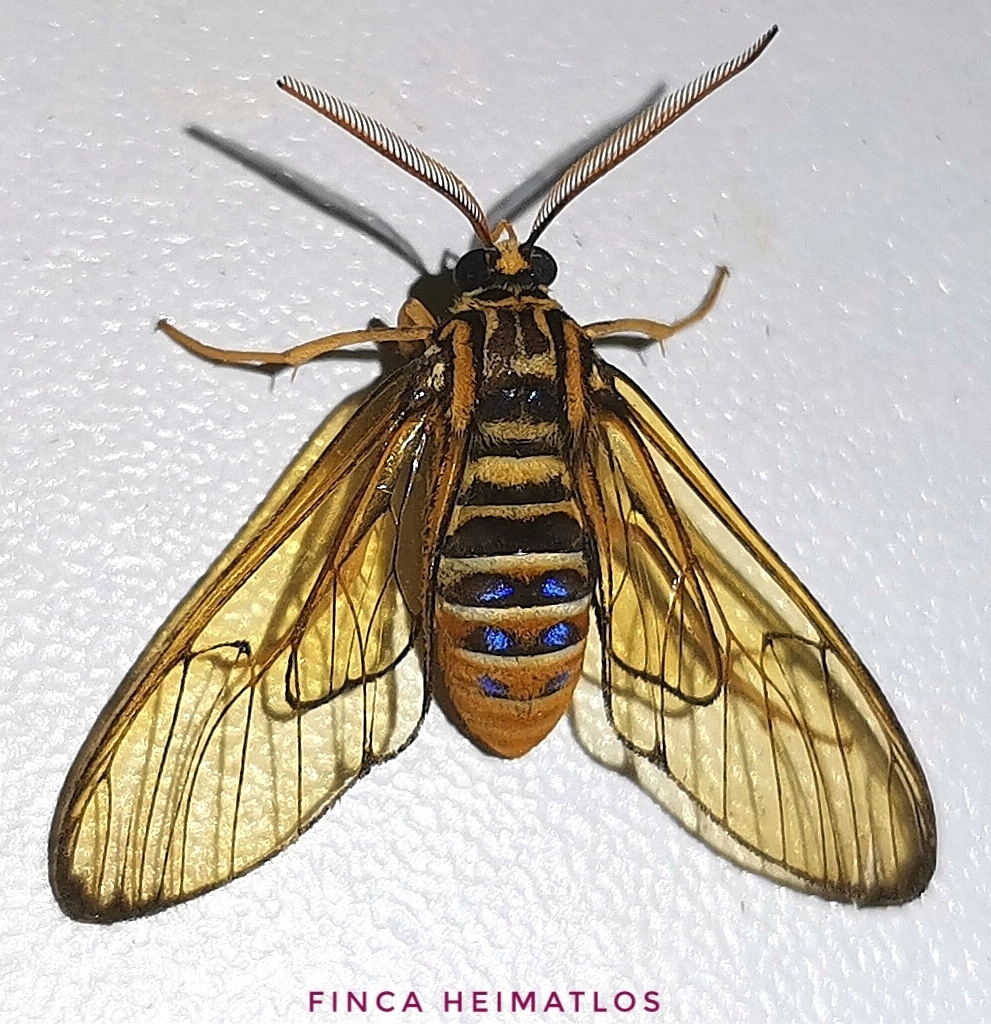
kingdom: Animalia
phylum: Arthropoda
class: Insecta
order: Lepidoptera
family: Erebidae
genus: Gymnelia
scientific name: Gymnelia villia
